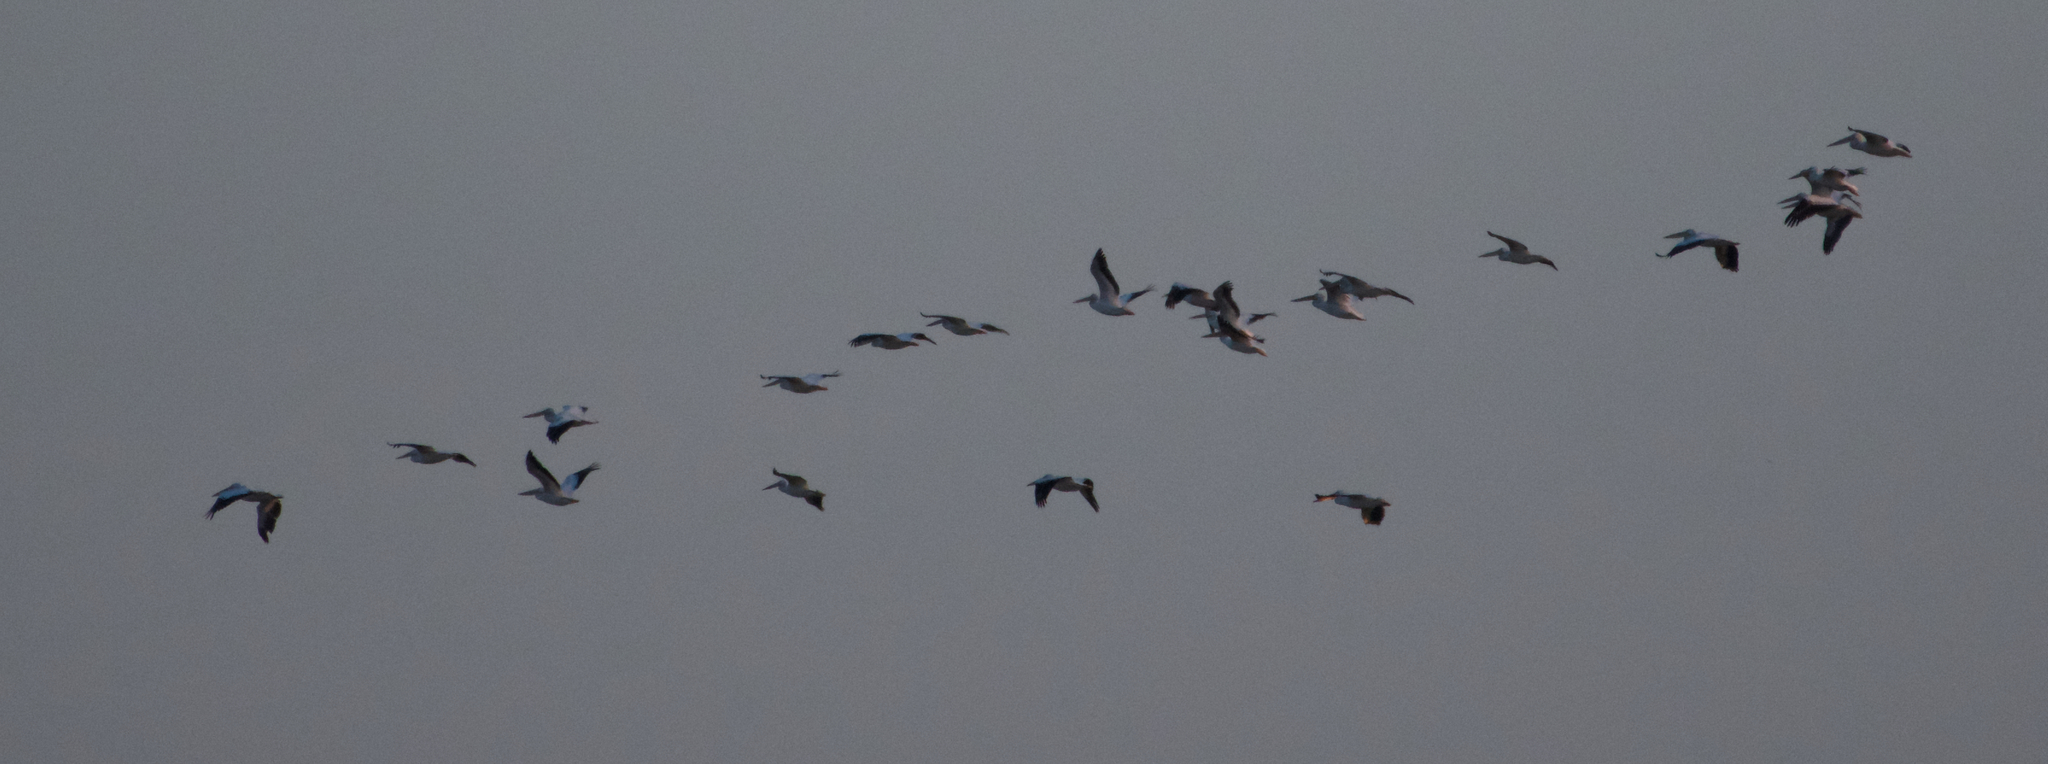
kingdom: Animalia
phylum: Chordata
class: Aves
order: Pelecaniformes
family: Pelecanidae
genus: Pelecanus
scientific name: Pelecanus erythrorhynchos
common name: American white pelican
